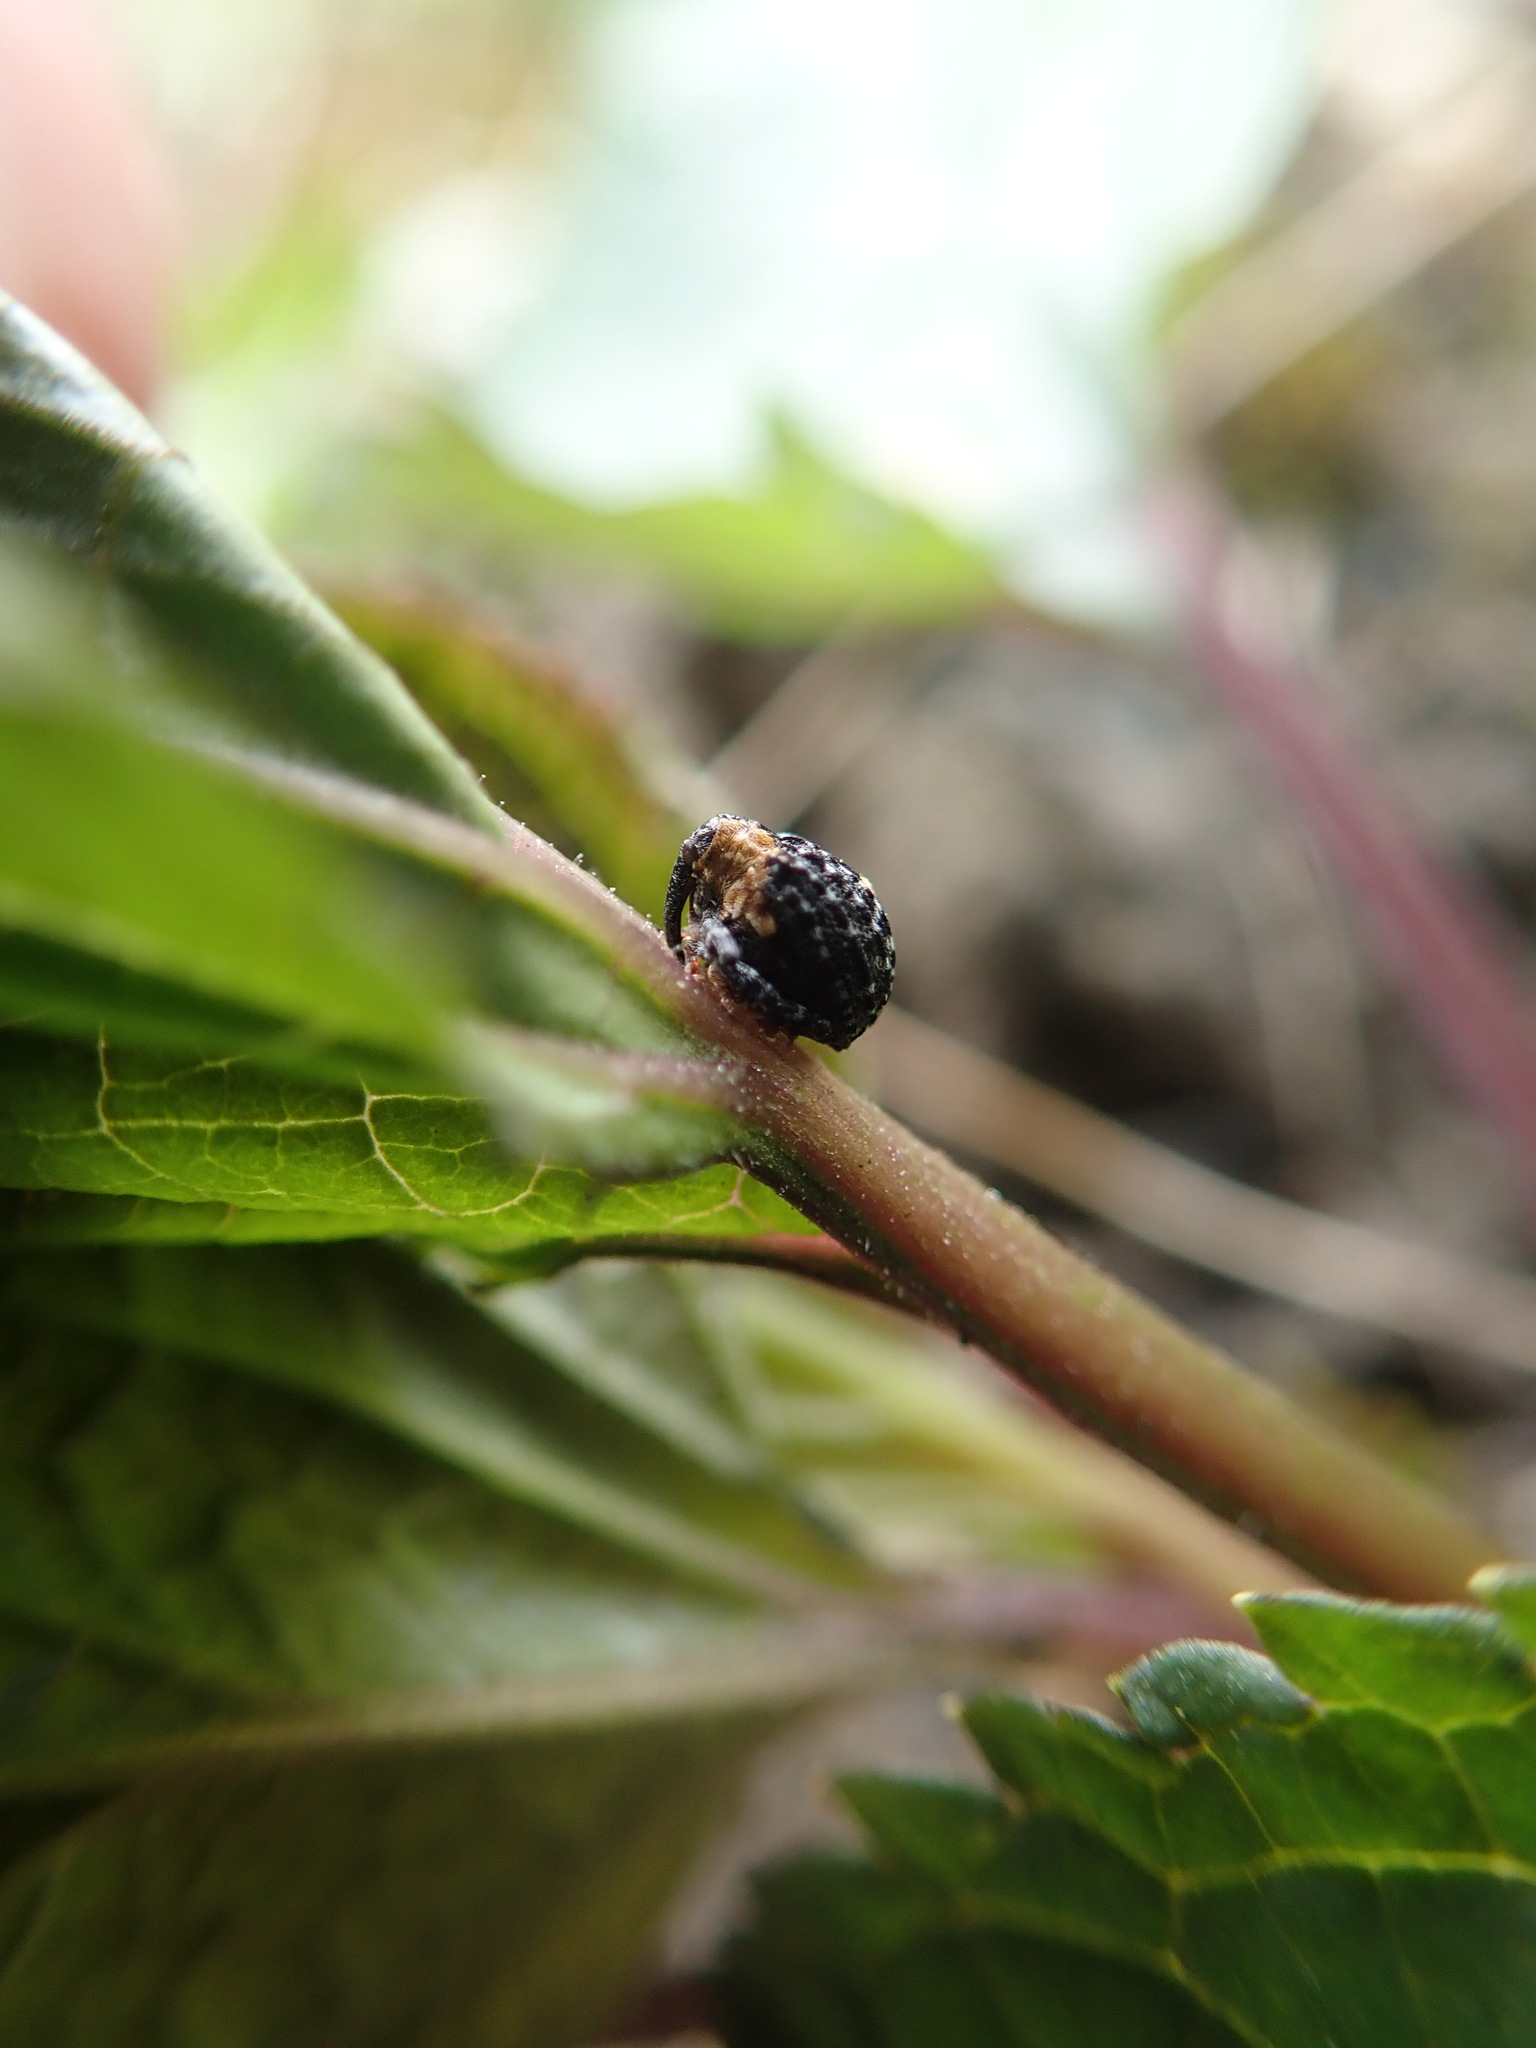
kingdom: Animalia
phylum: Arthropoda
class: Insecta
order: Coleoptera
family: Curculionidae
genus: Cionus
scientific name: Cionus tuberculosus
